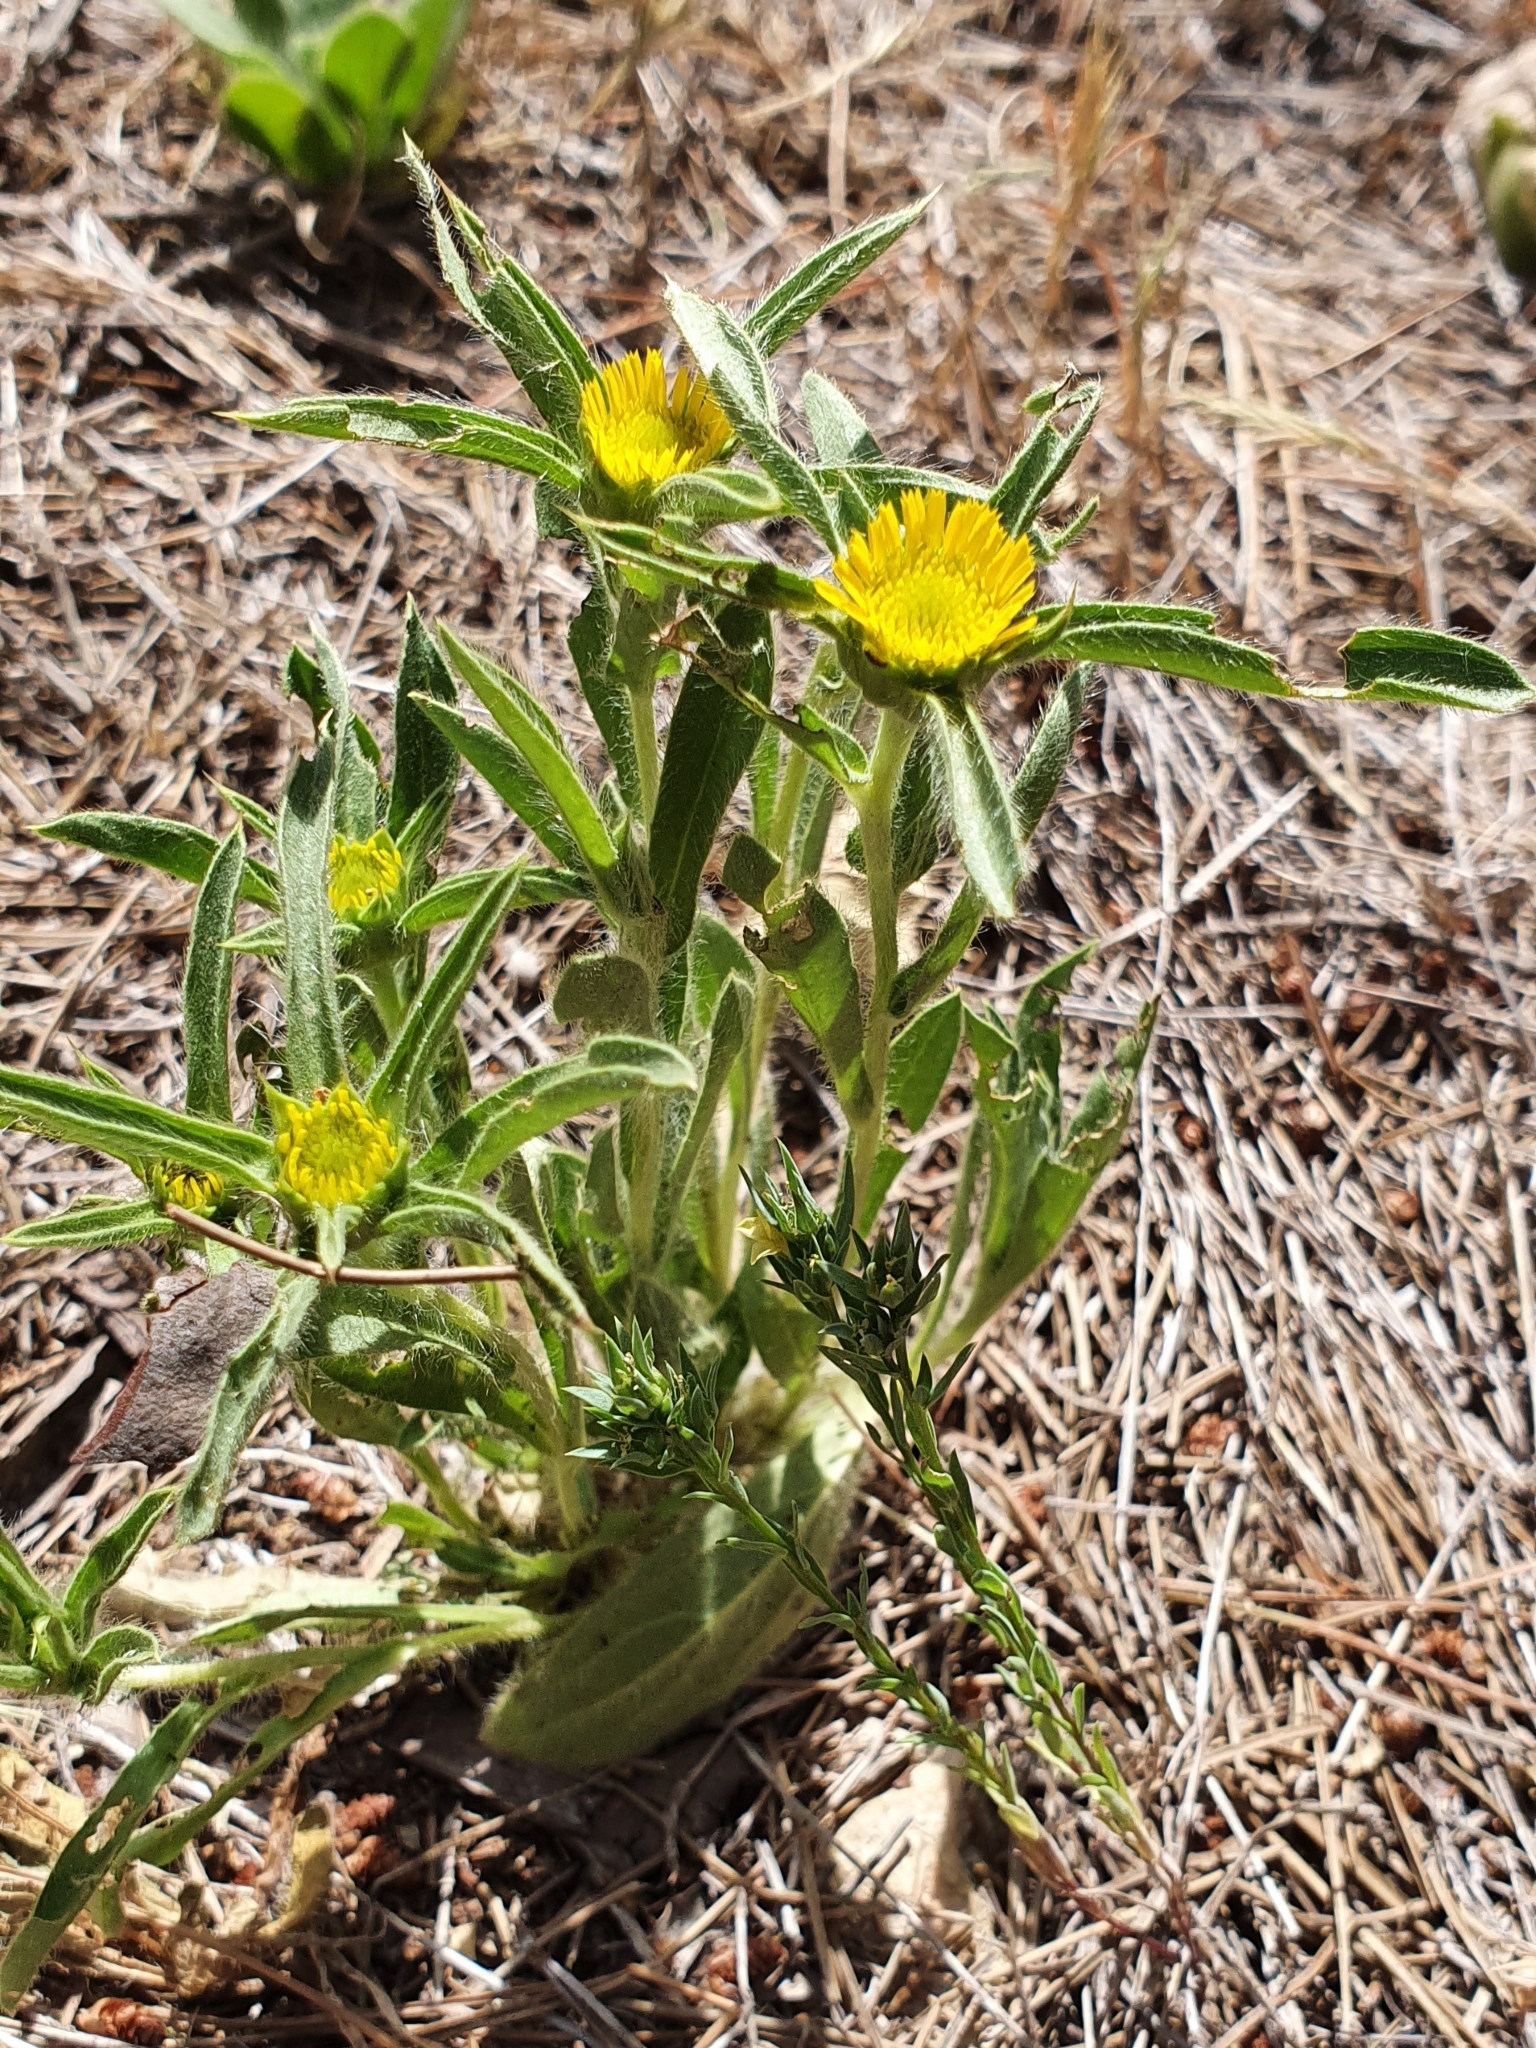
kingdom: Plantae
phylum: Tracheophyta
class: Magnoliopsida
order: Asterales
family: Asteraceae
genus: Pallenis
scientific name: Pallenis spinosa
